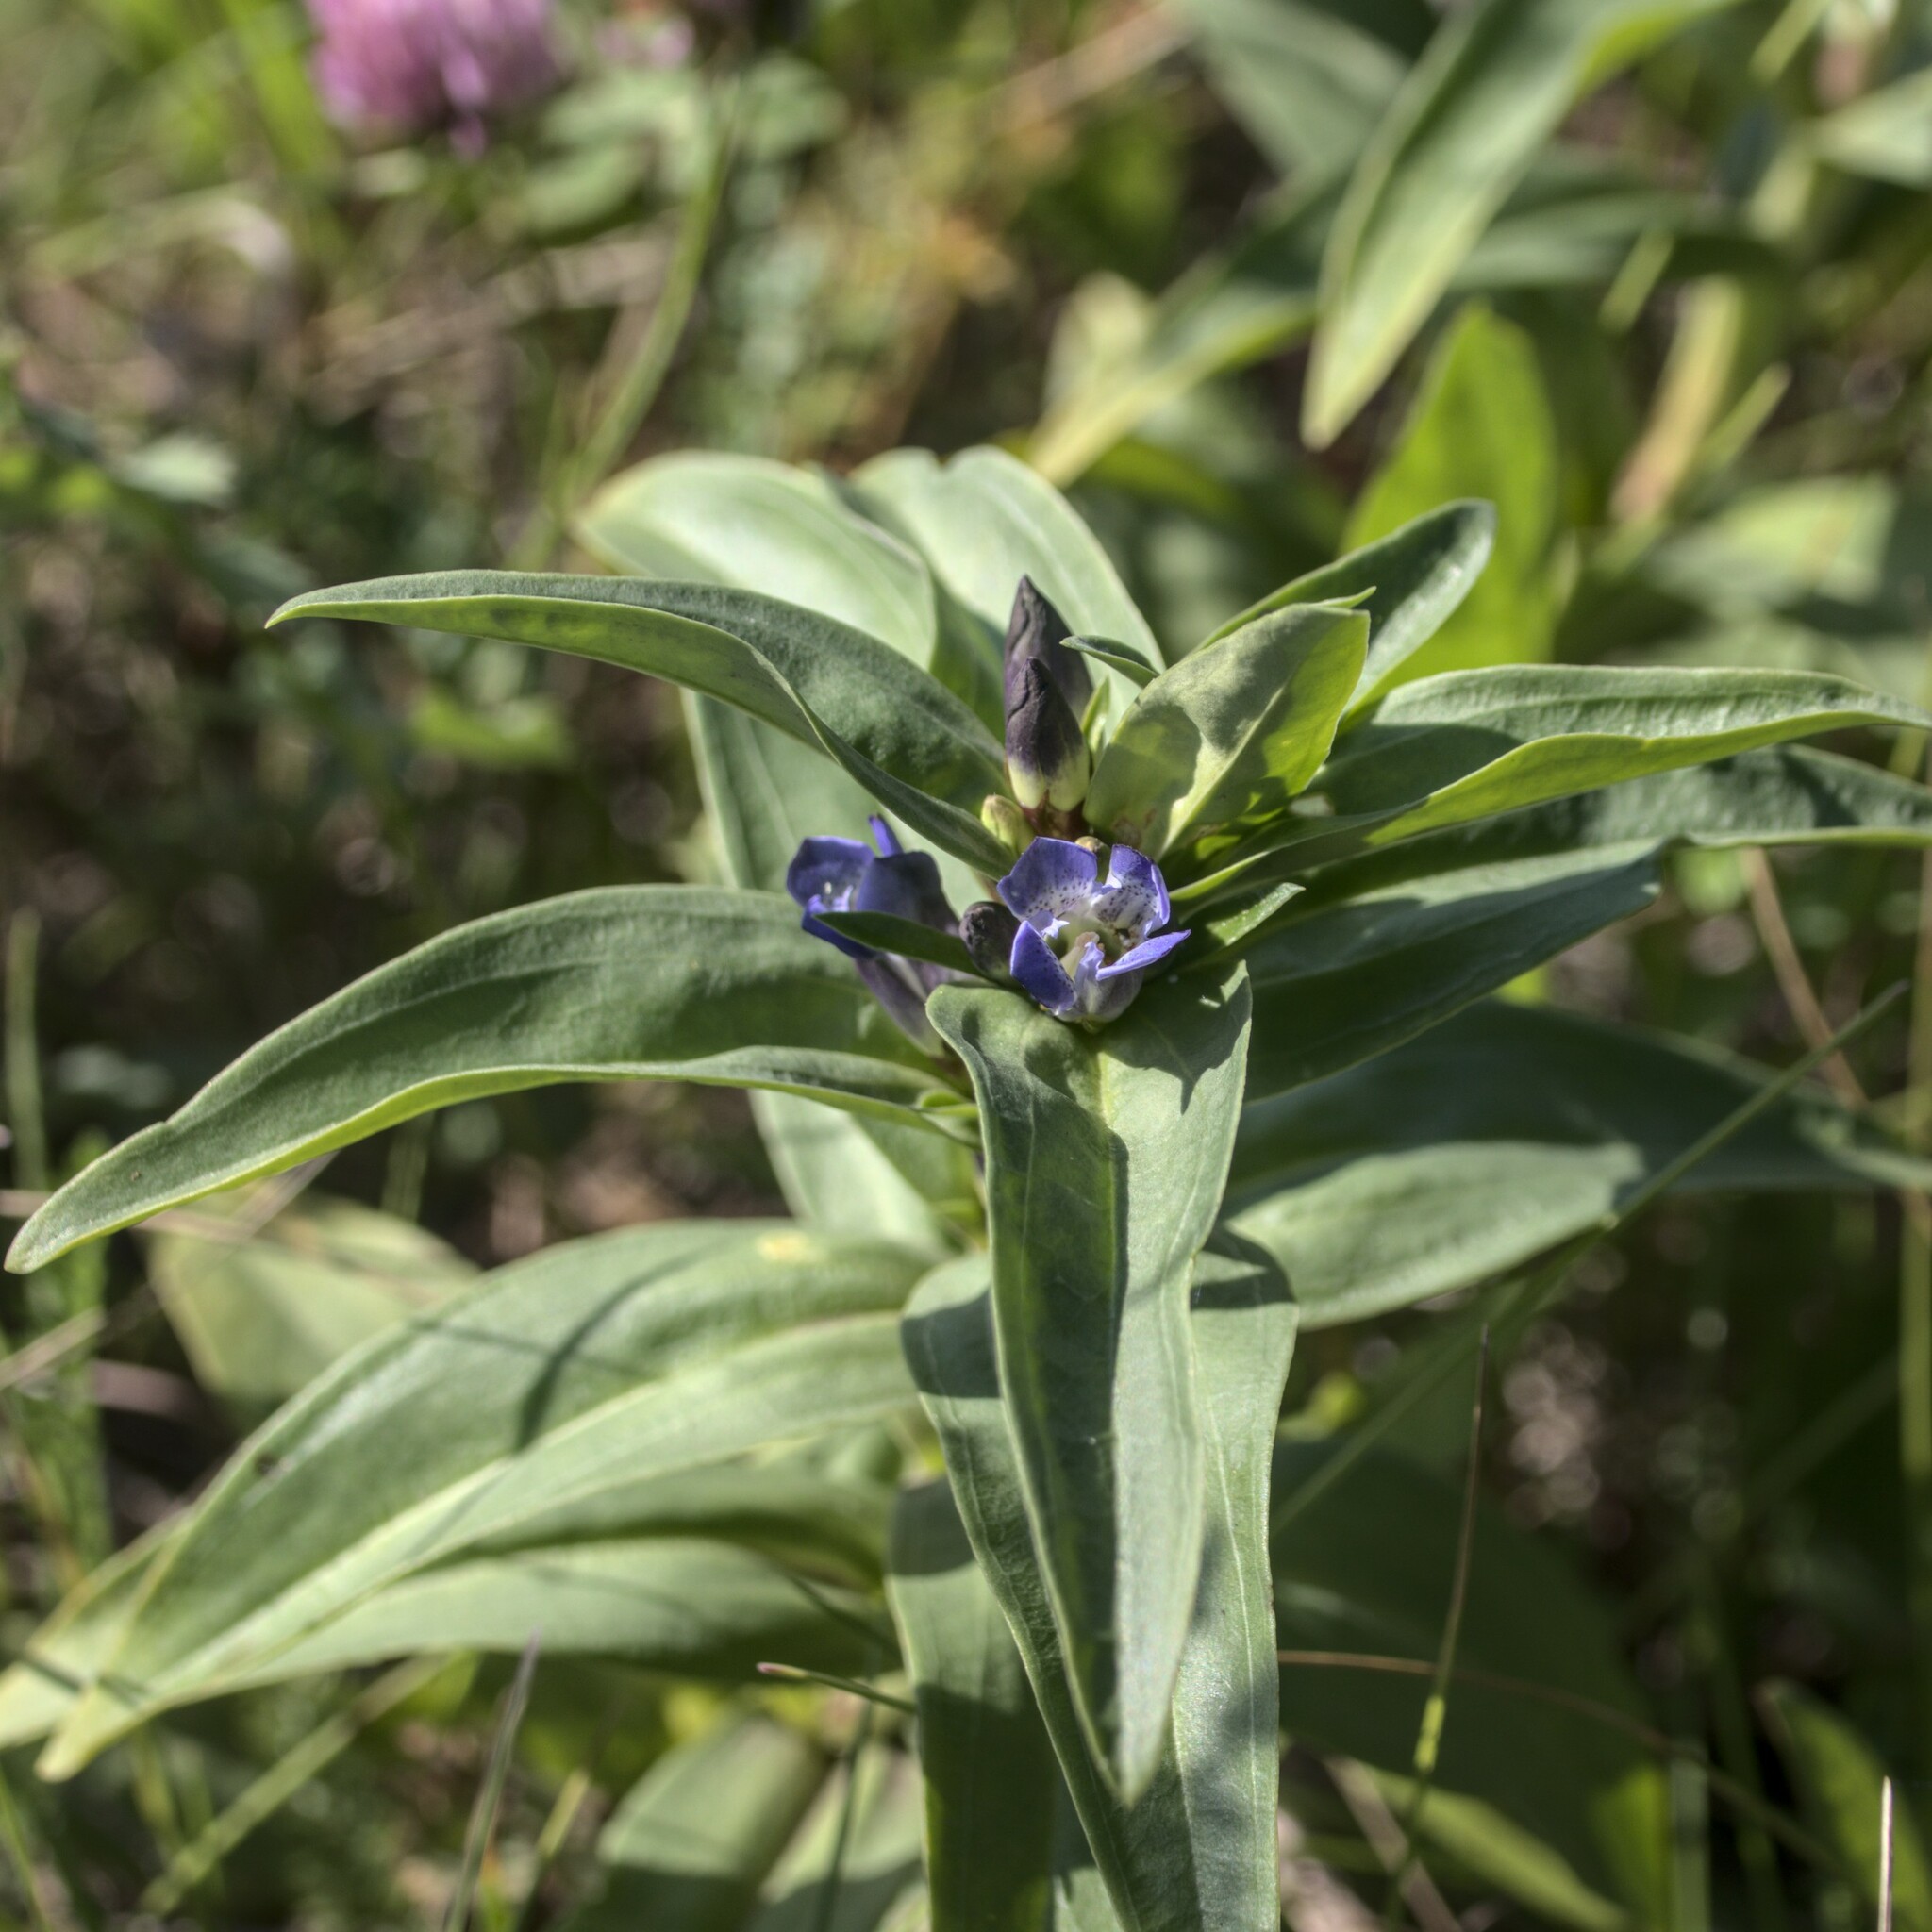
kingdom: Plantae
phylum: Tracheophyta
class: Magnoliopsida
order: Gentianales
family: Gentianaceae
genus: Gentiana
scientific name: Gentiana cruciata
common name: Cross gentian
